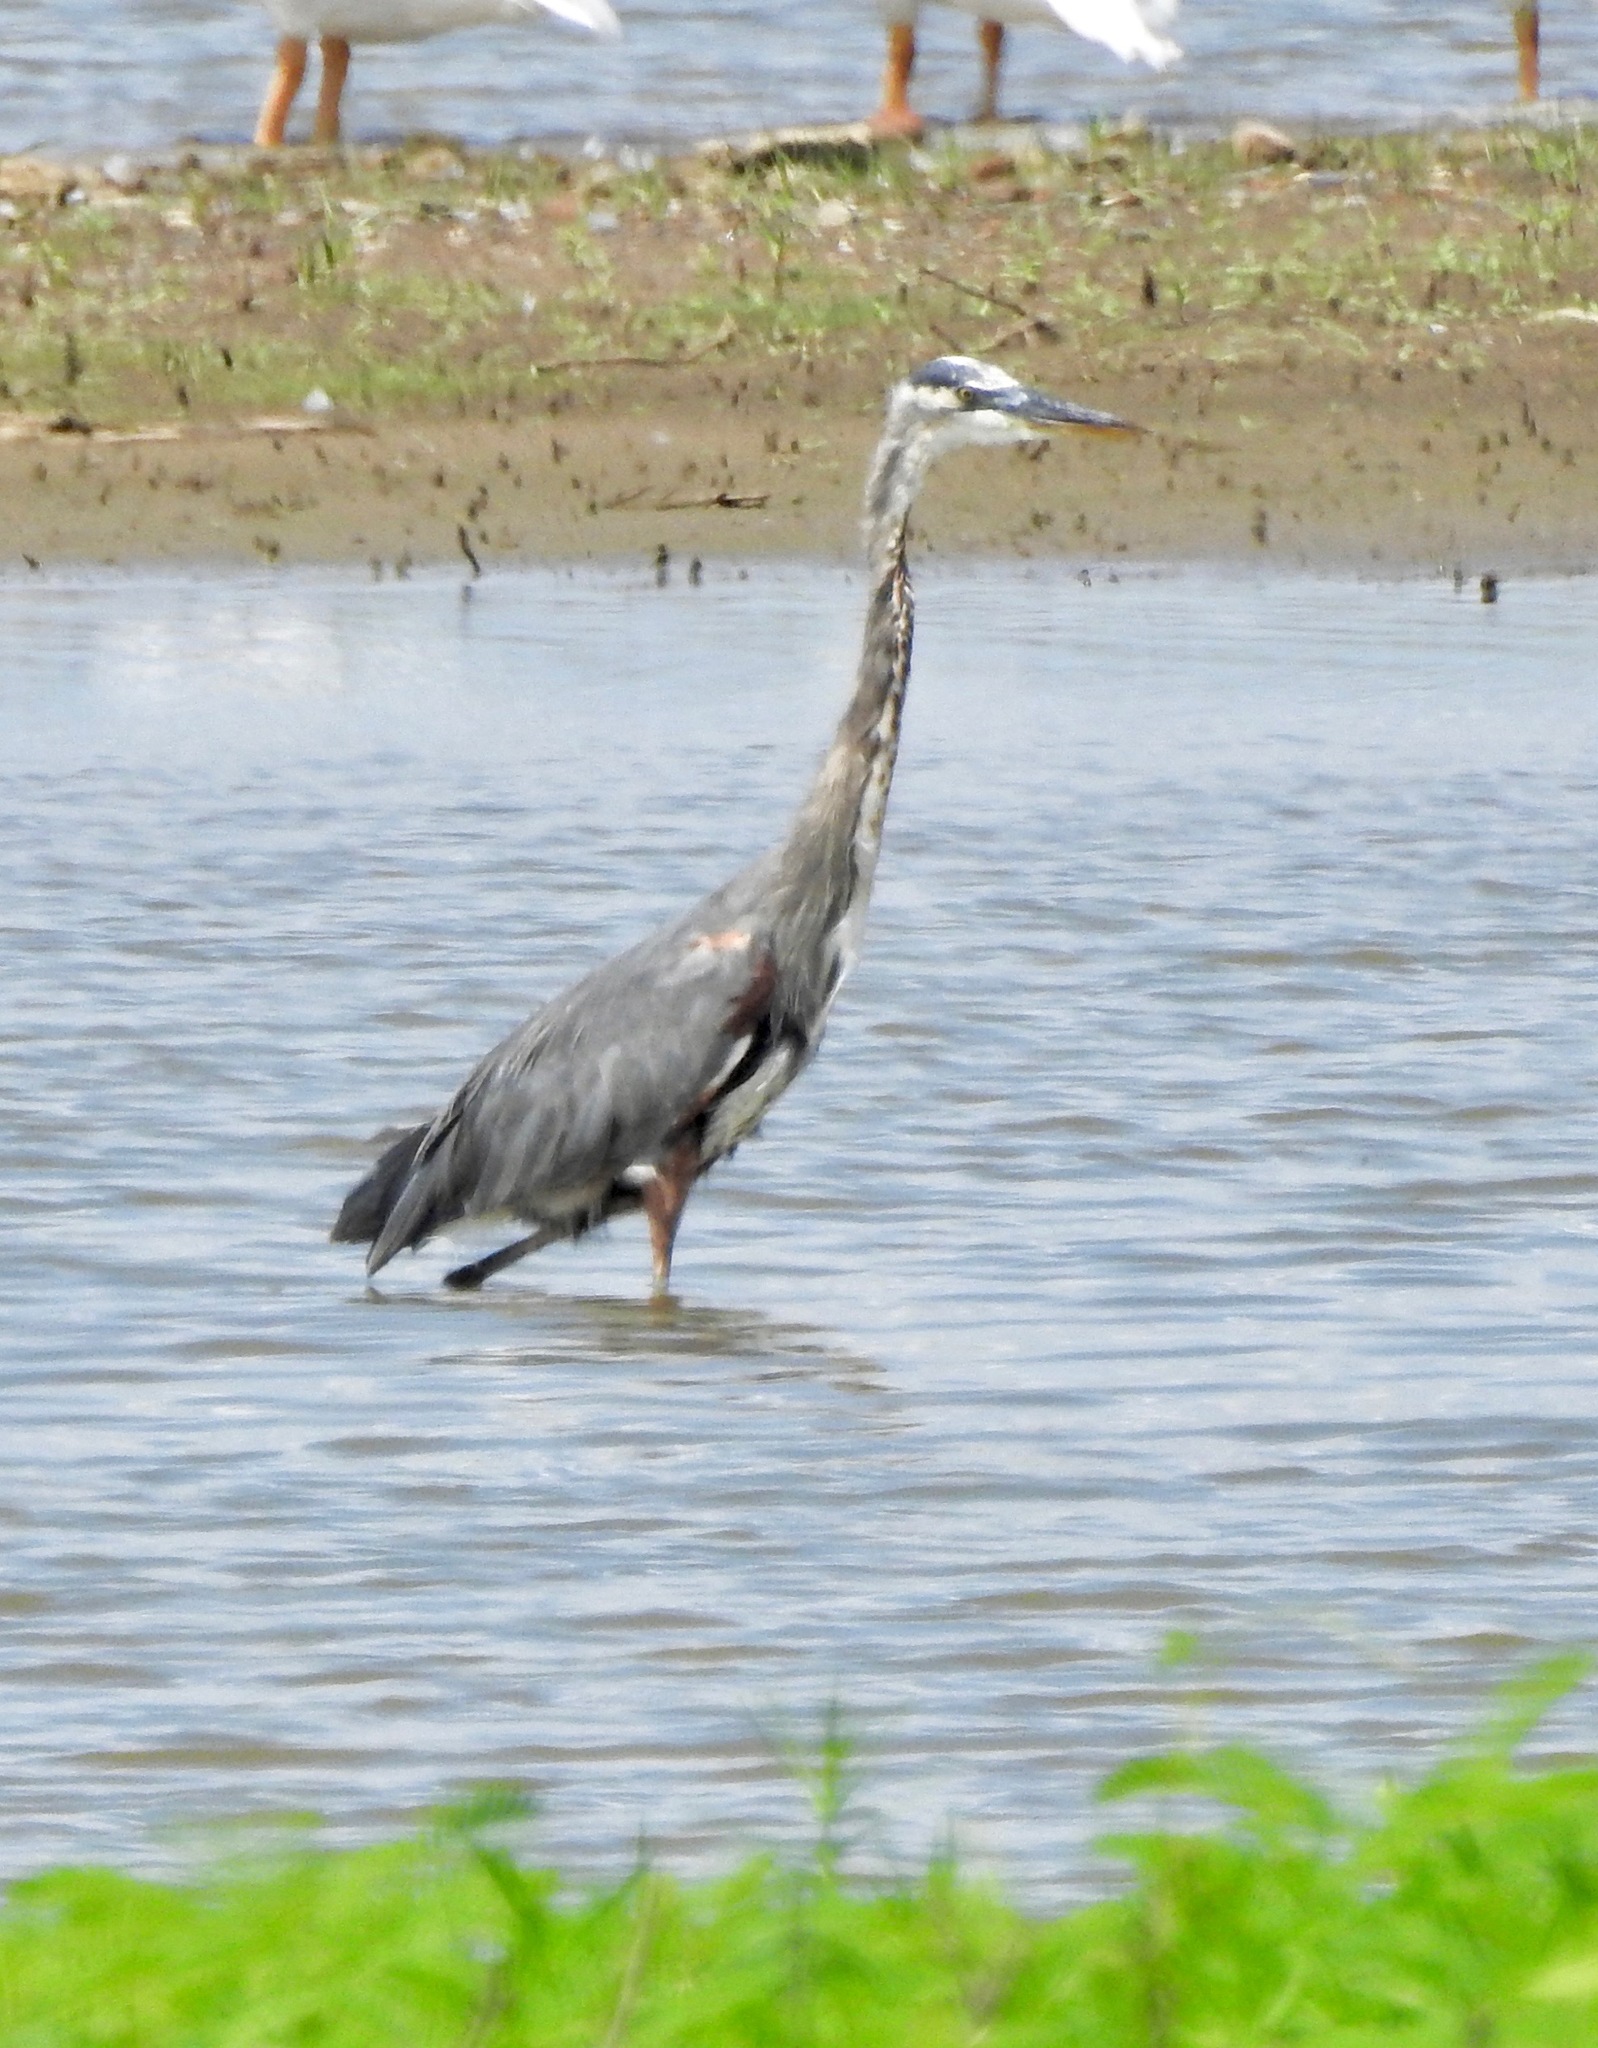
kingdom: Animalia
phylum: Chordata
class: Aves
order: Pelecaniformes
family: Ardeidae
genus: Ardea
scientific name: Ardea herodias
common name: Great blue heron
